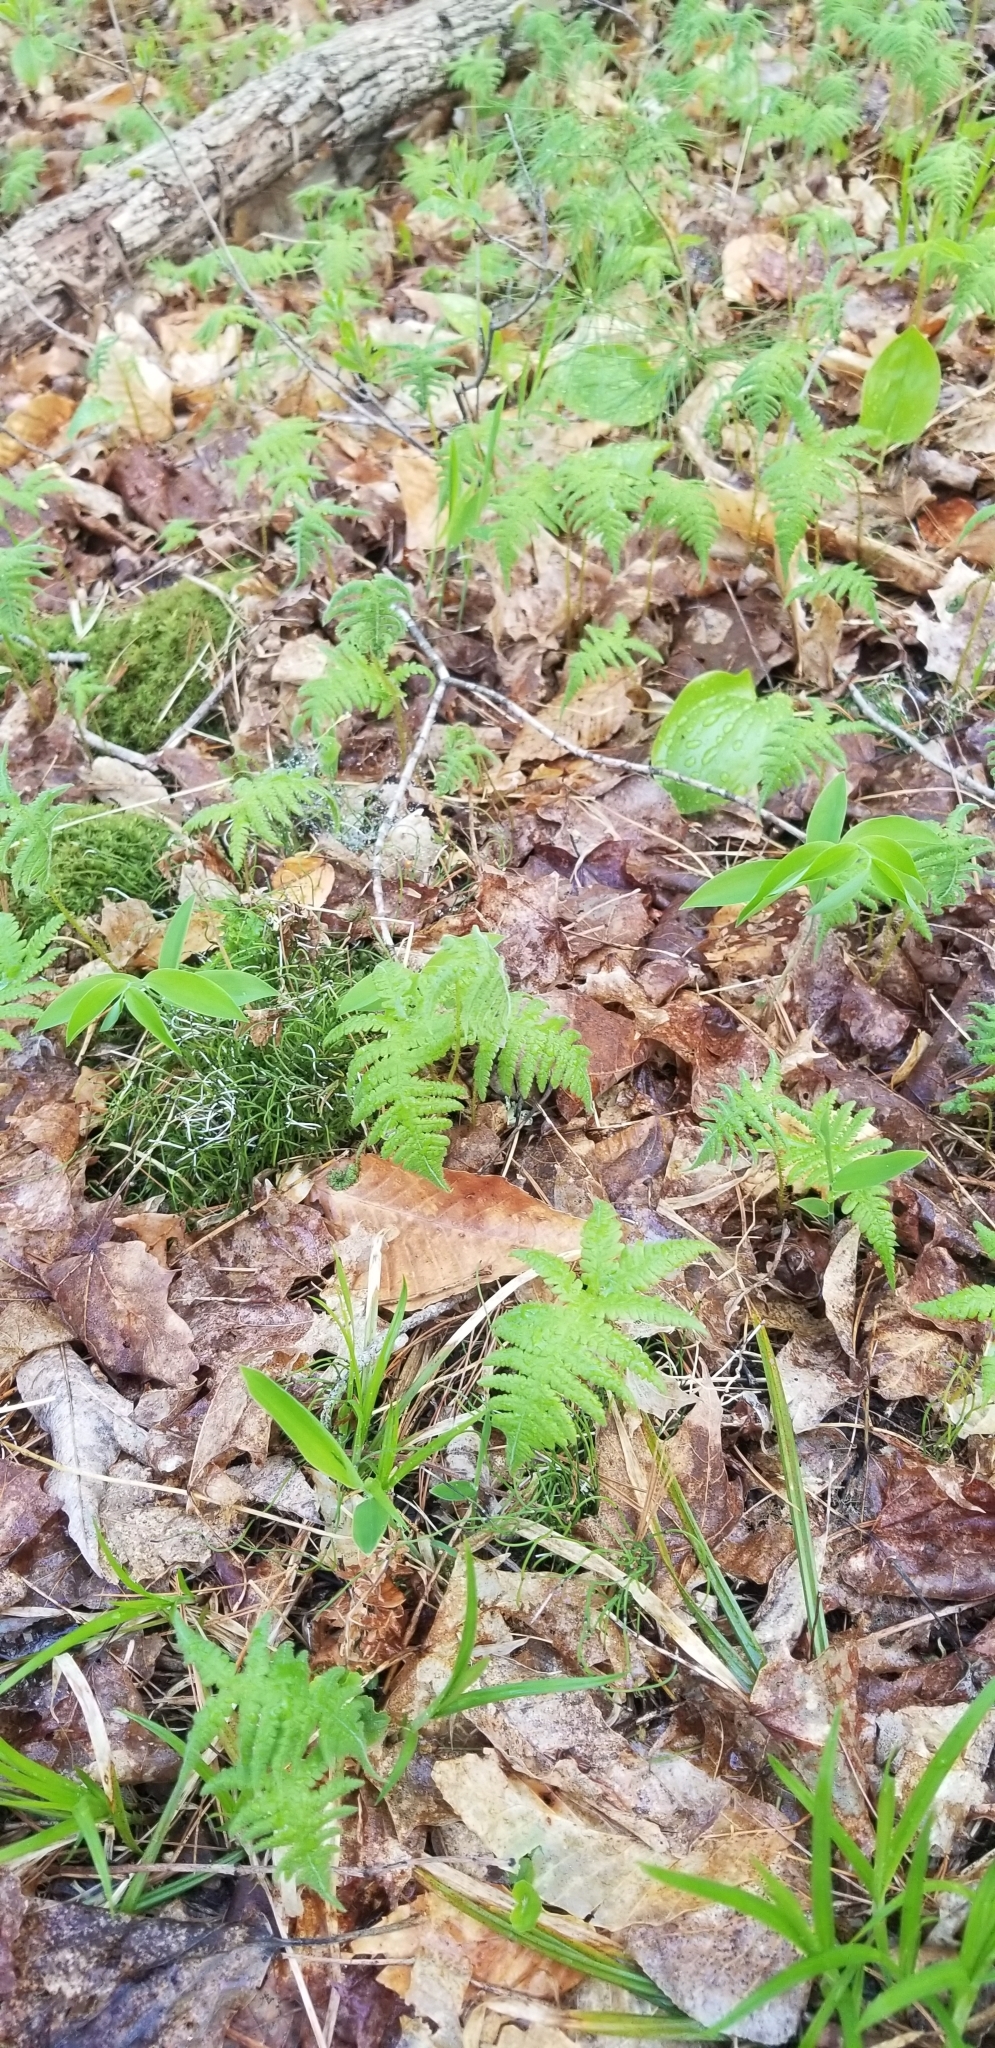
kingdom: Plantae
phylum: Tracheophyta
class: Polypodiopsida
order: Polypodiales
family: Thelypteridaceae
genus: Phegopteris
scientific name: Phegopteris connectilis
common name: Beech fern
